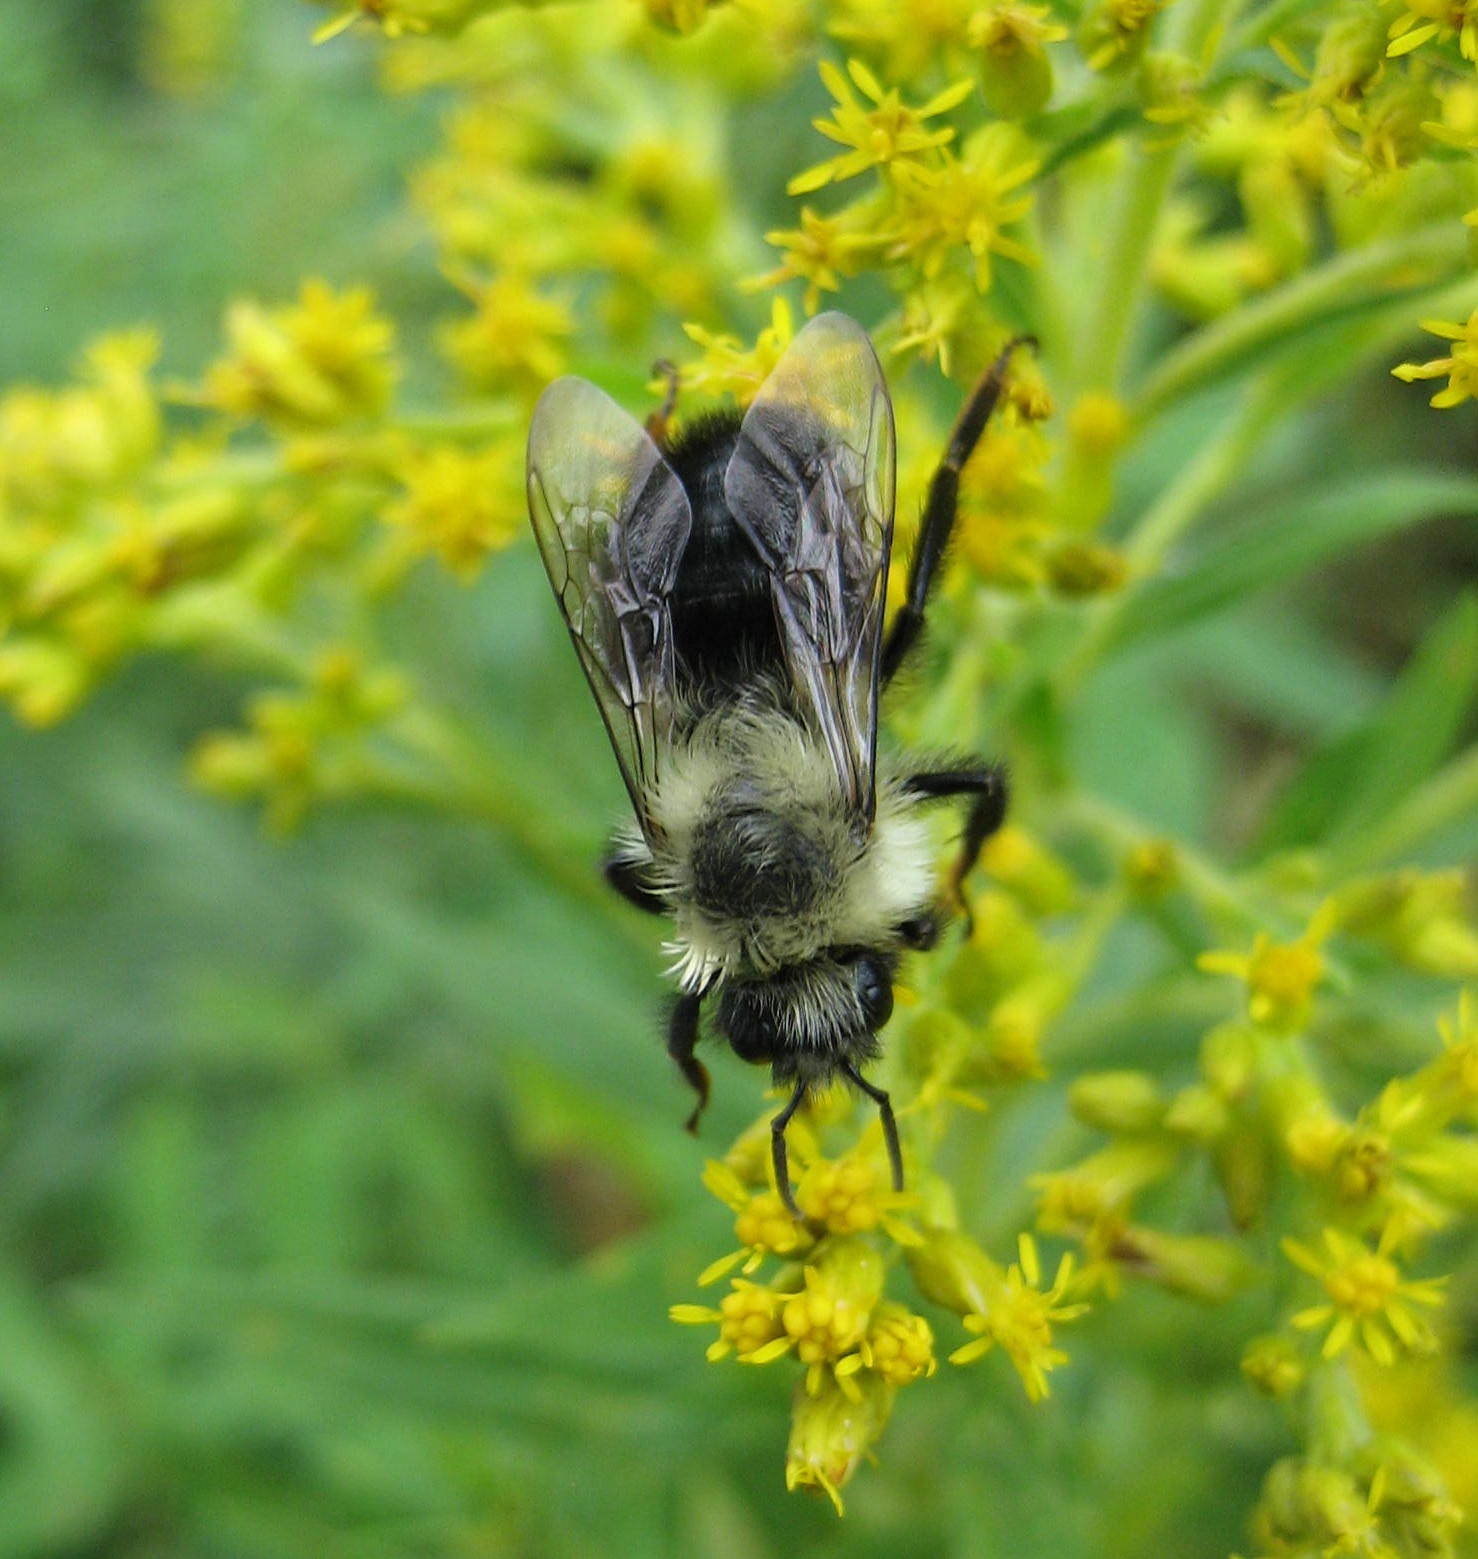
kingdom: Animalia
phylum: Arthropoda
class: Insecta
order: Hymenoptera
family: Apidae
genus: Bombus
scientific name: Bombus impatiens
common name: Common eastern bumble bee
